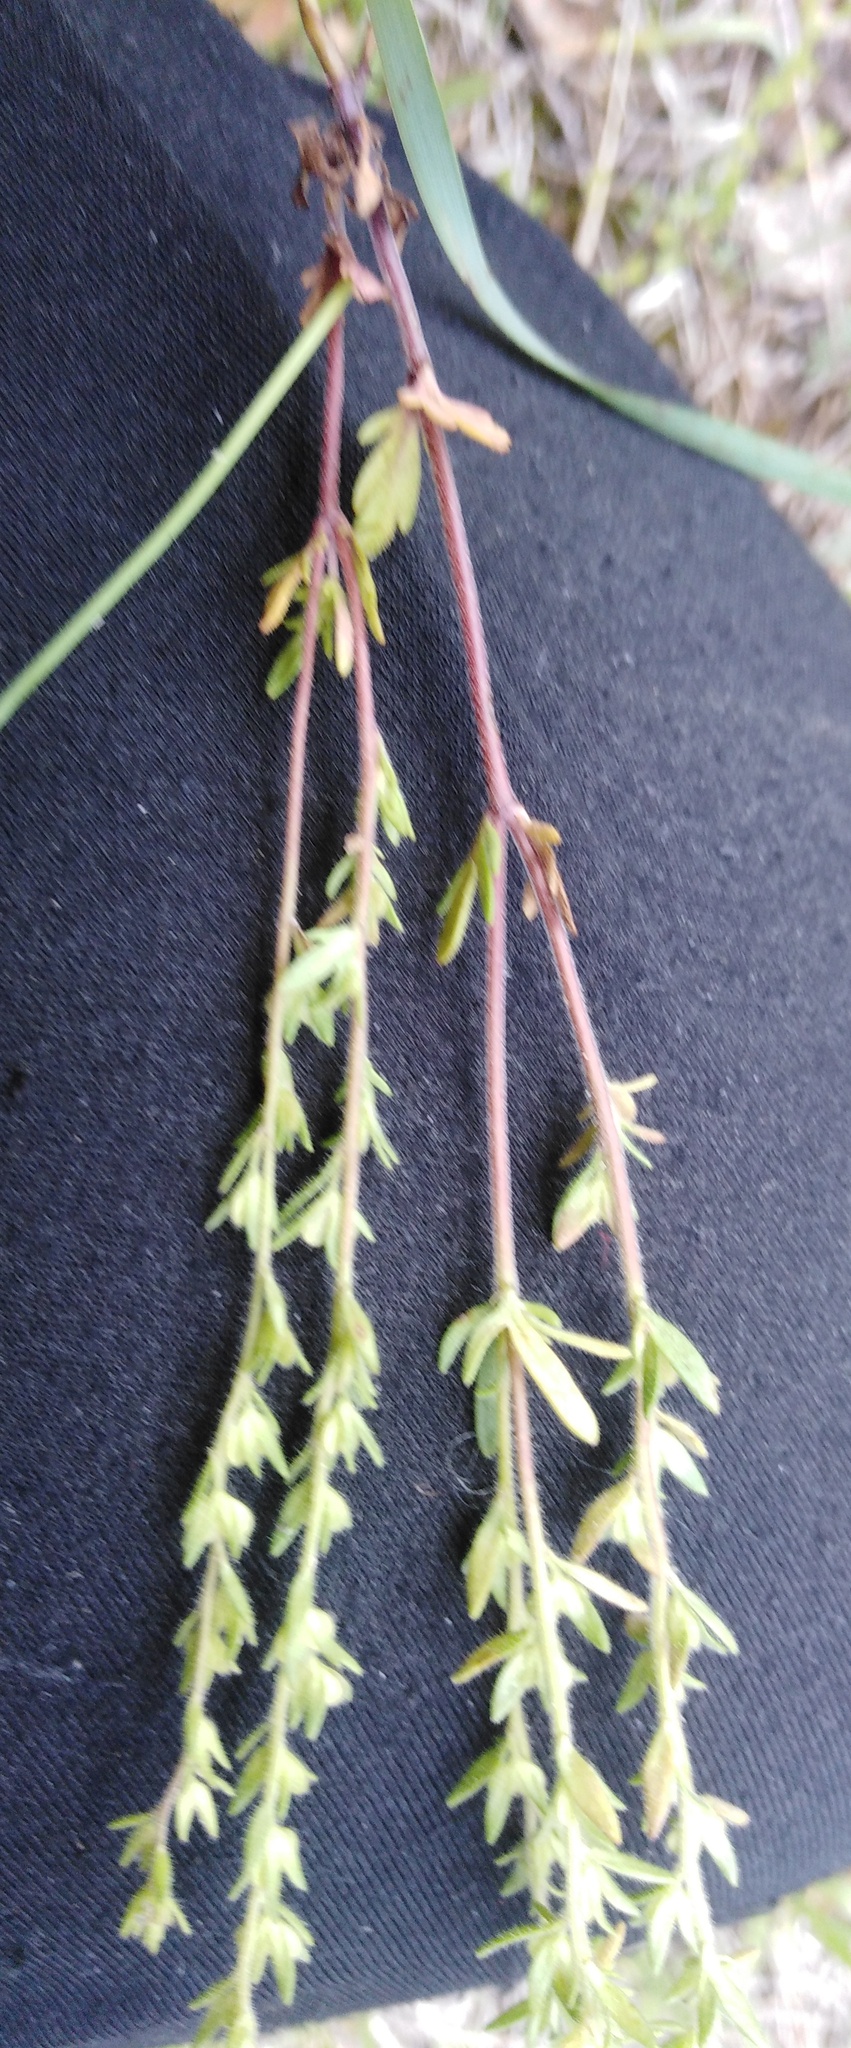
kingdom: Plantae
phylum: Tracheophyta
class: Magnoliopsida
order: Lamiales
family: Plantaginaceae
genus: Veronica
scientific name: Veronica verna
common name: Spring speedwell
